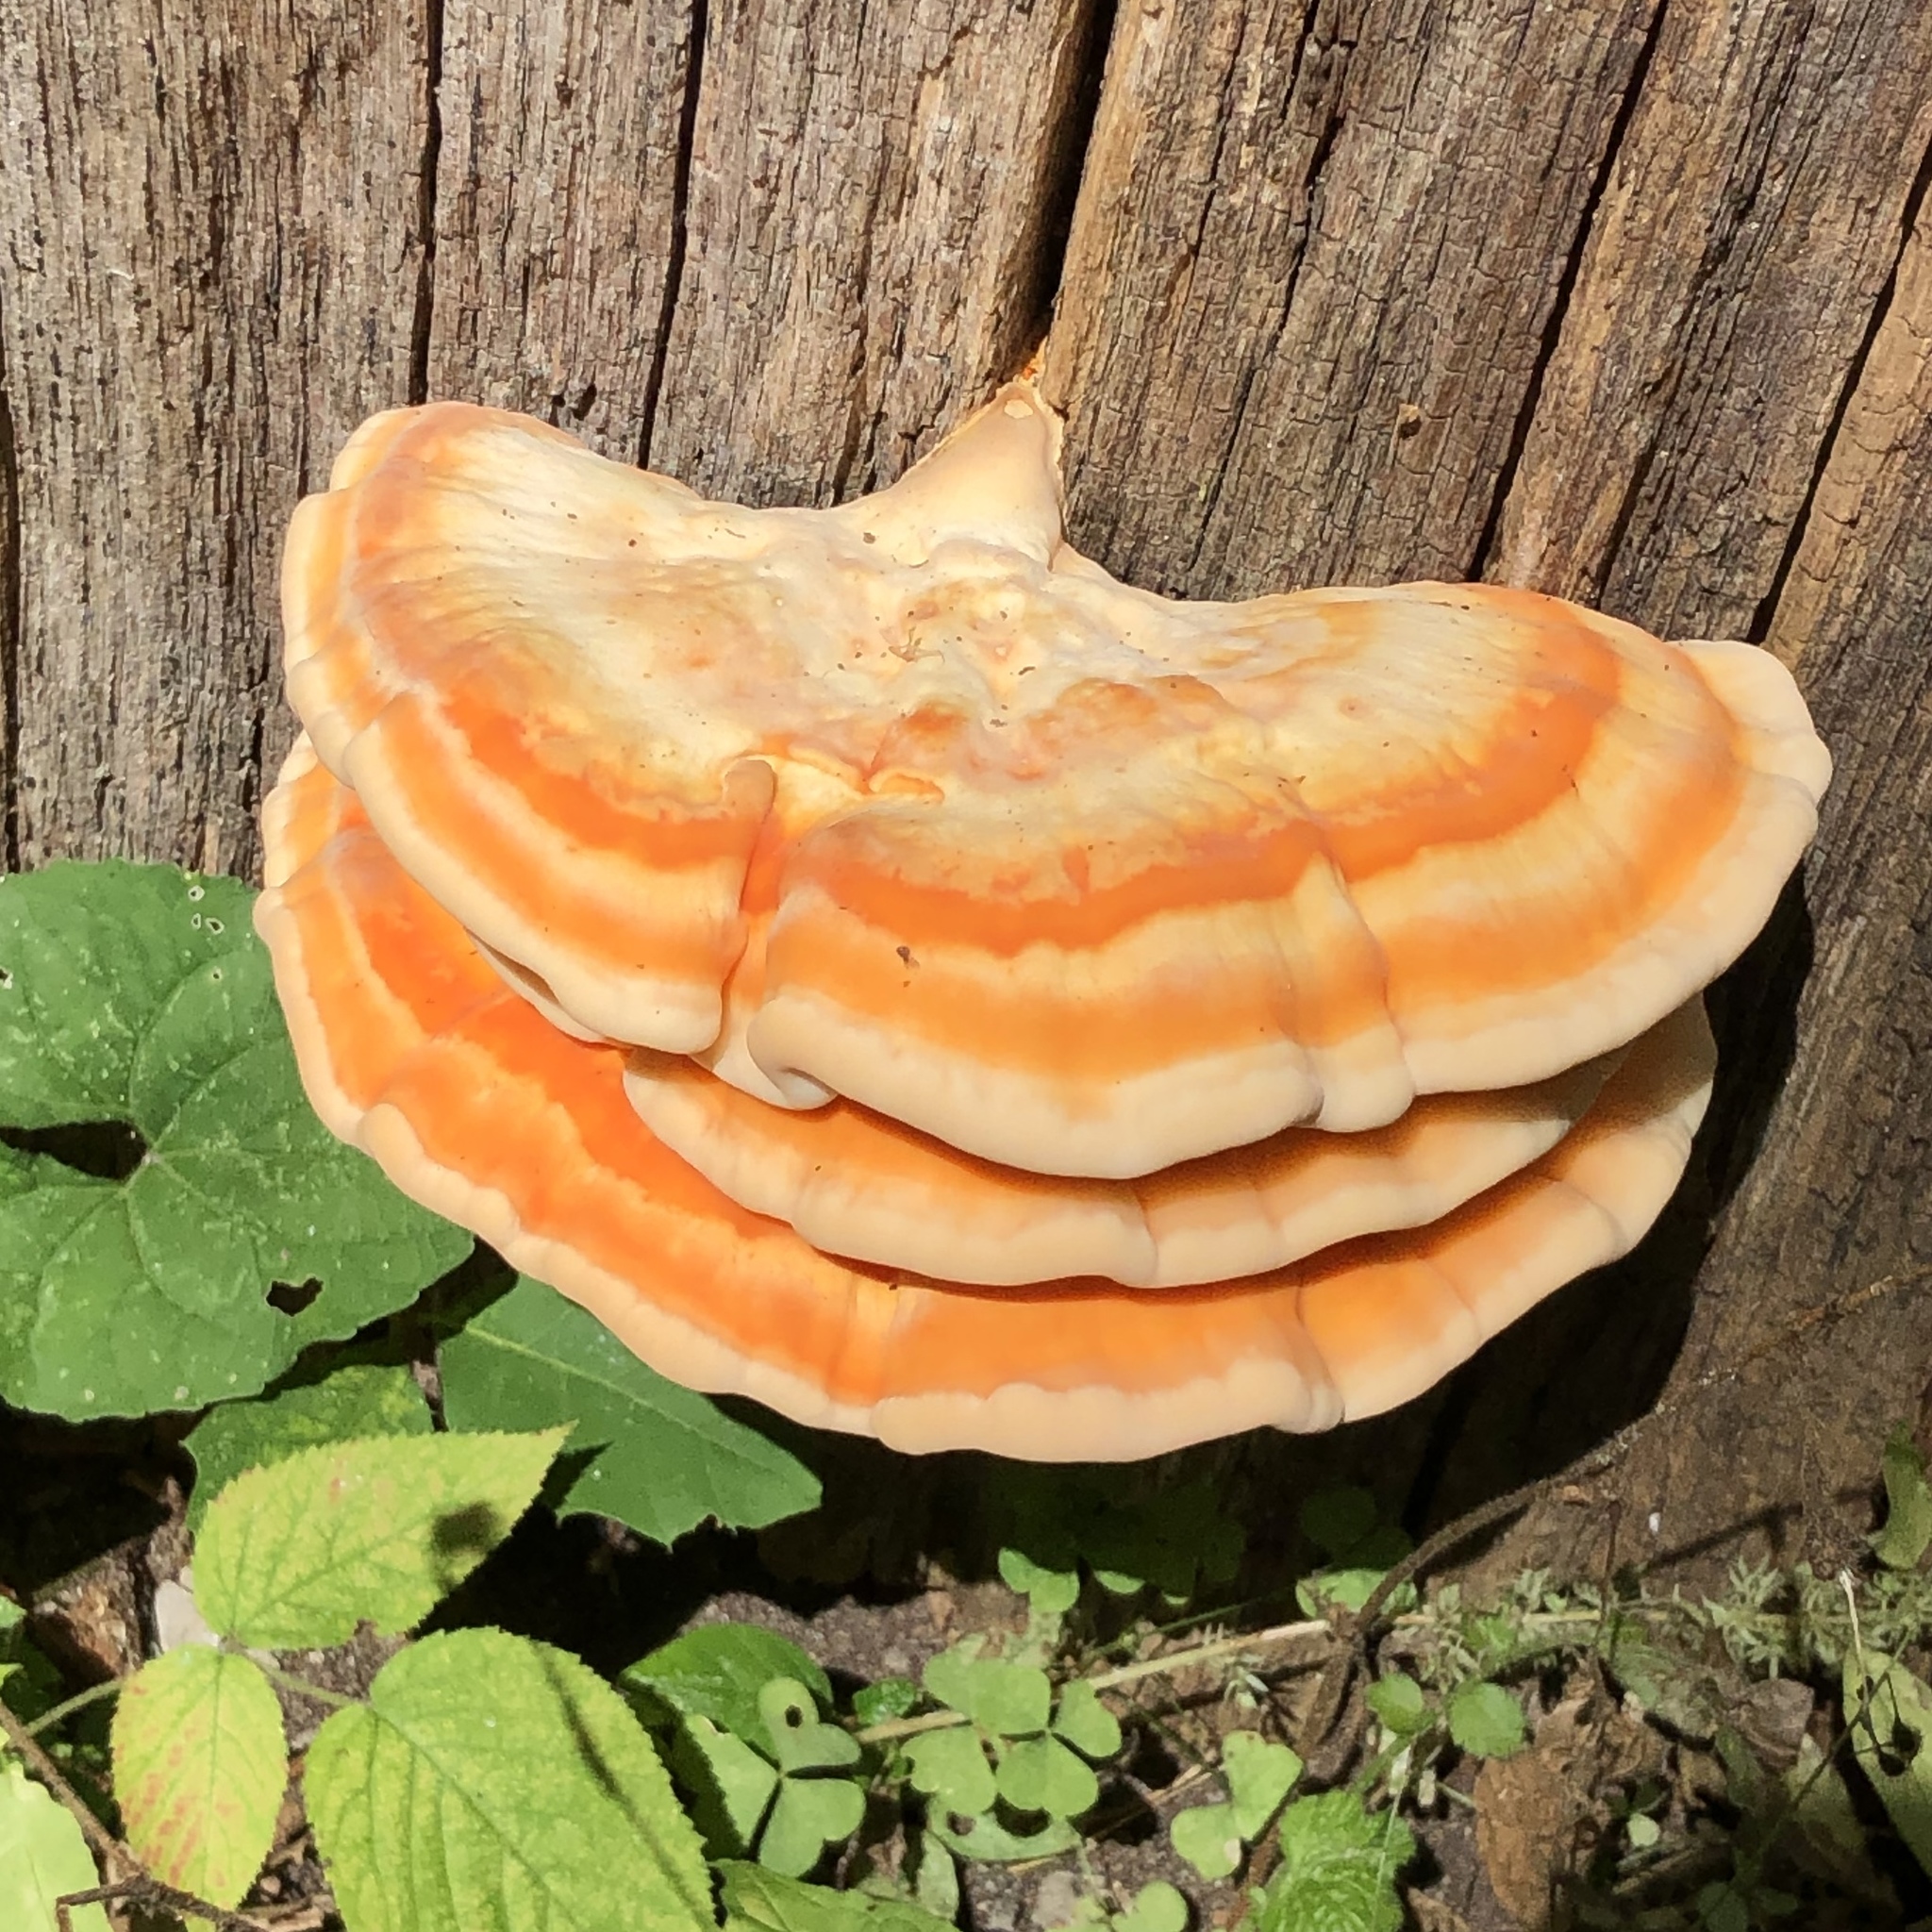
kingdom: Fungi
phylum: Basidiomycota
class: Agaricomycetes
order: Polyporales
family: Laetiporaceae
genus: Laetiporus
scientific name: Laetiporus sulphureus
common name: Chicken of the woods
